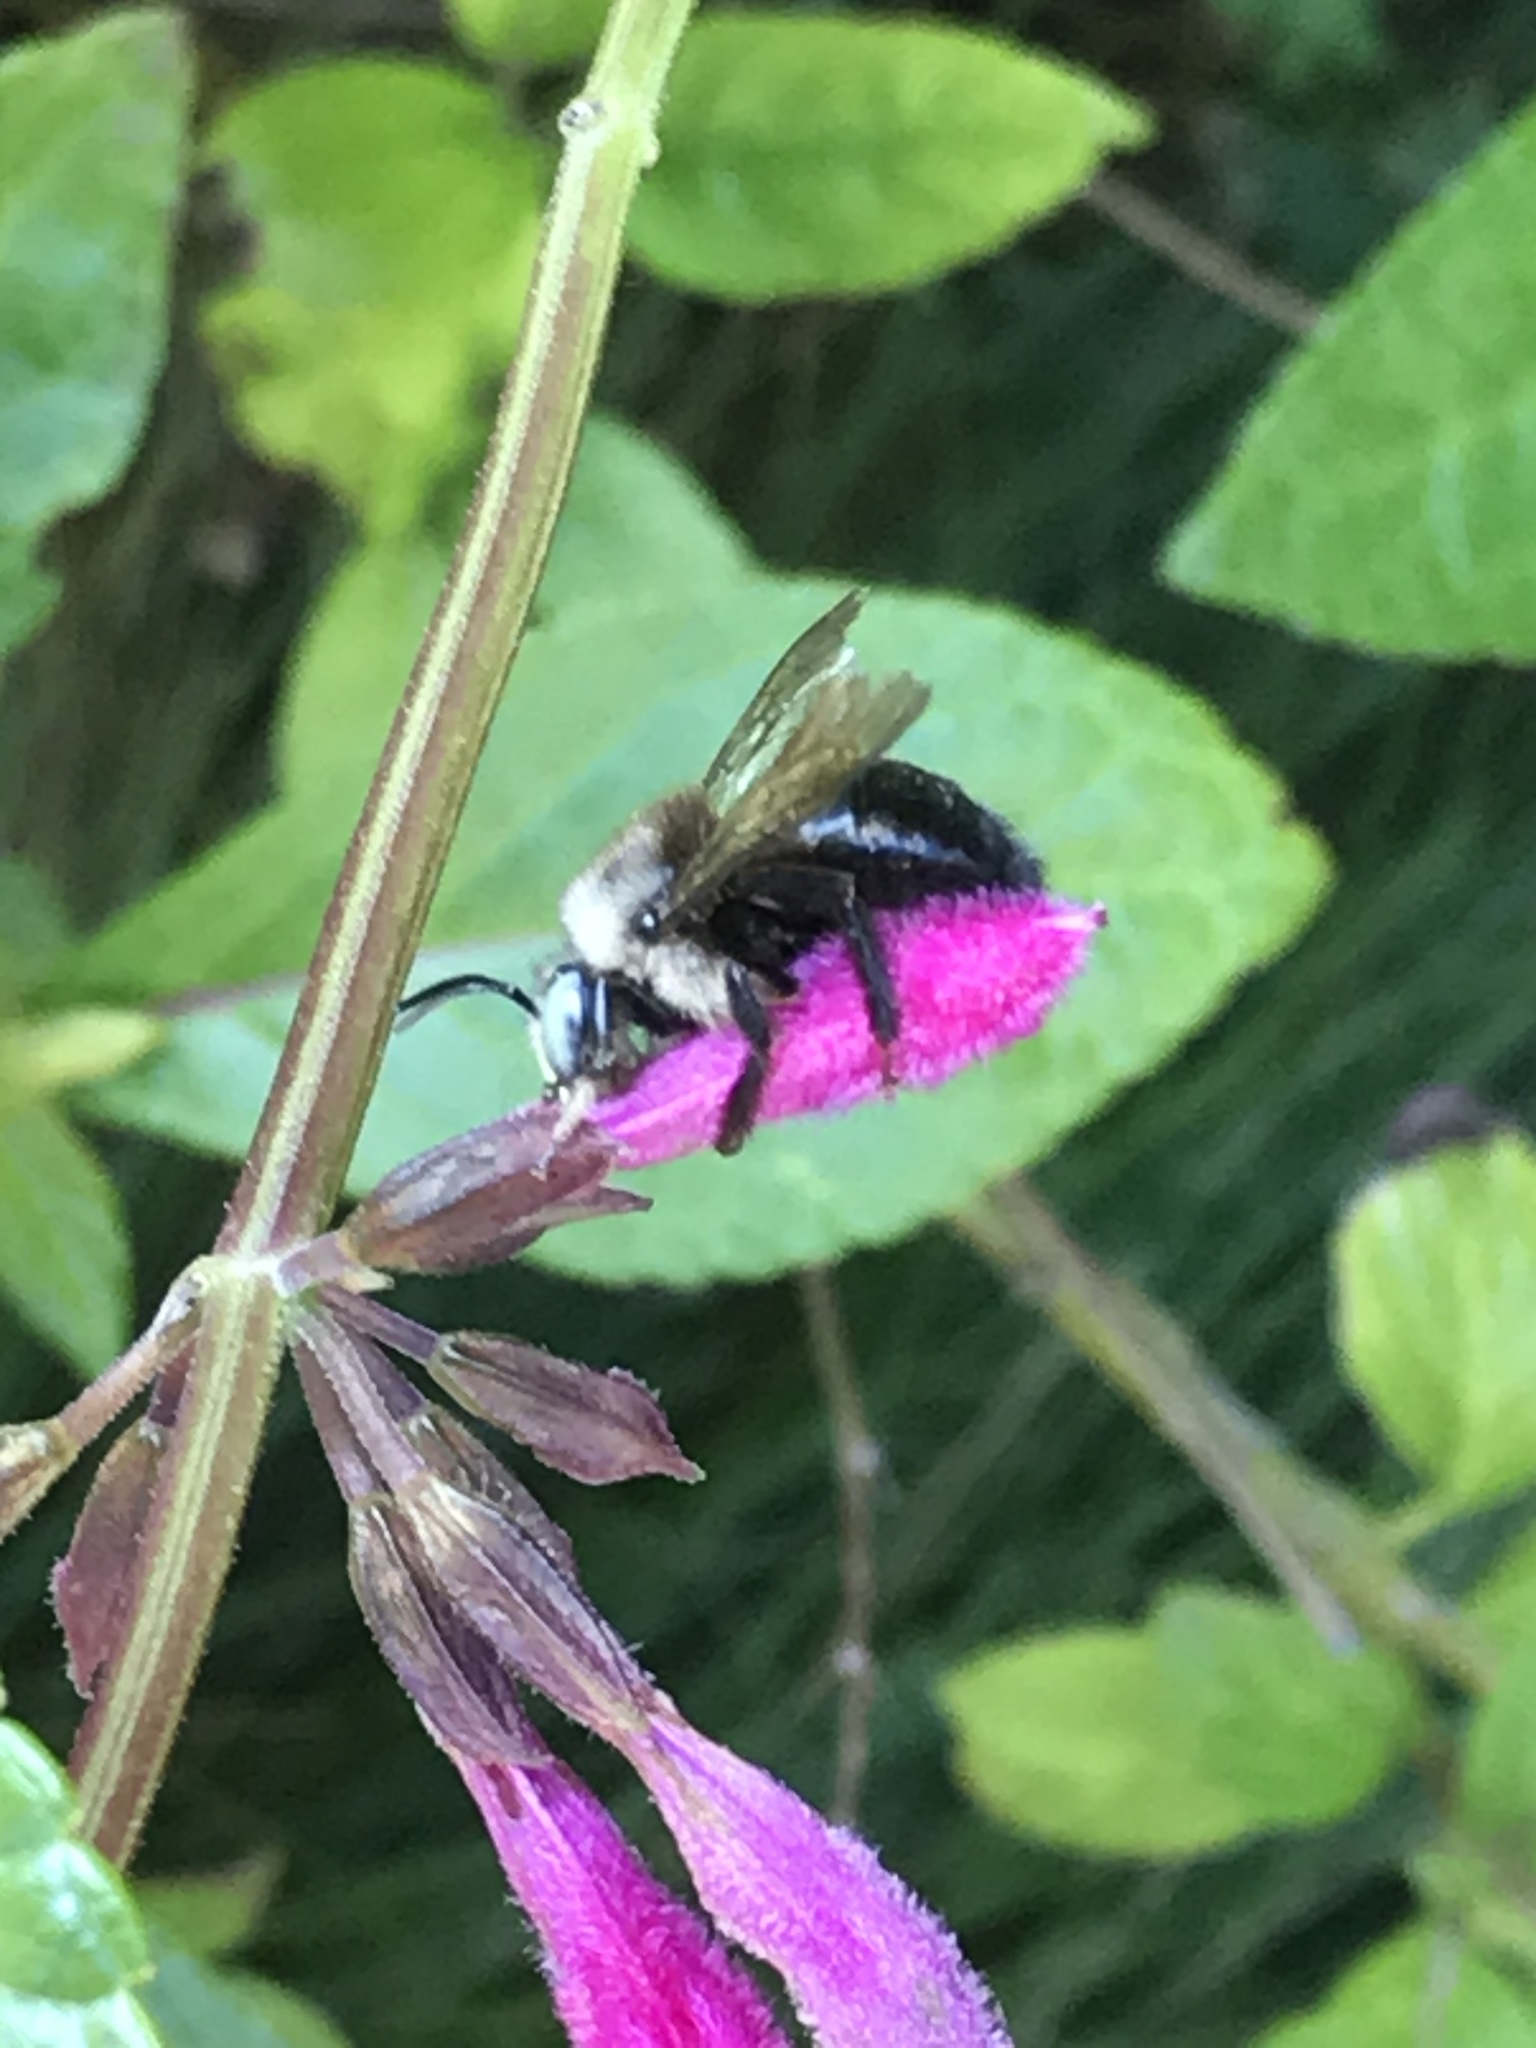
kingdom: Animalia
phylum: Arthropoda
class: Insecta
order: Hymenoptera
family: Apidae
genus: Xylocopa
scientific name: Xylocopa tabaniformis
